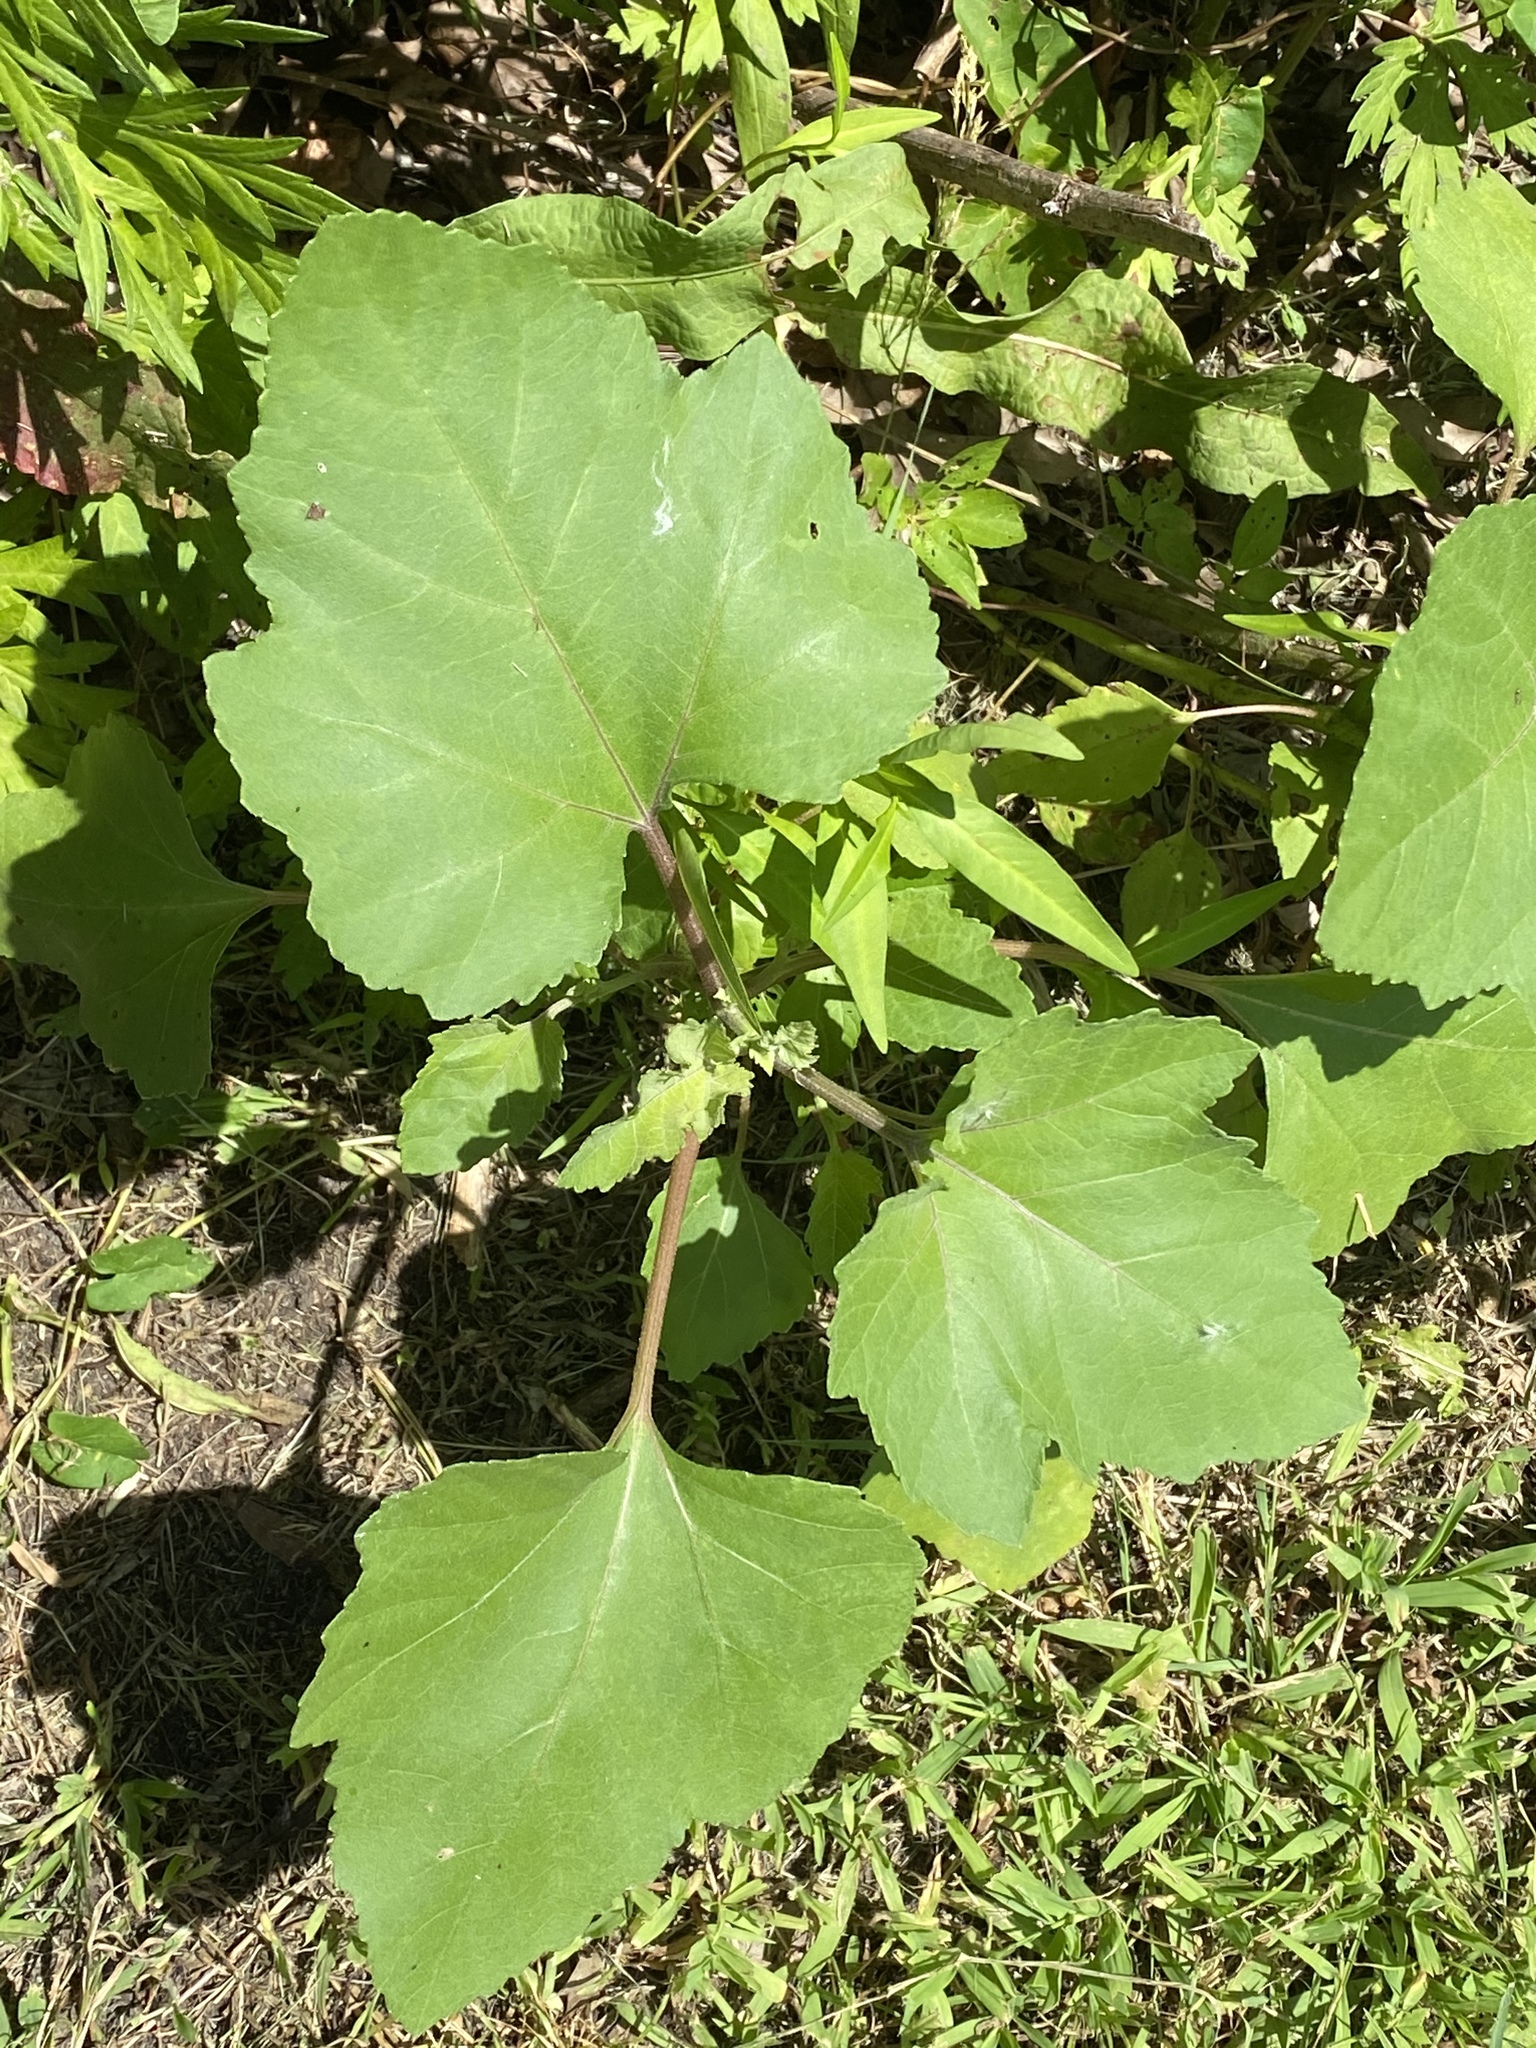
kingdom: Plantae
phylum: Tracheophyta
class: Magnoliopsida
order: Asterales
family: Asteraceae
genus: Xanthium
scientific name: Xanthium strumarium
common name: Rough cocklebur
